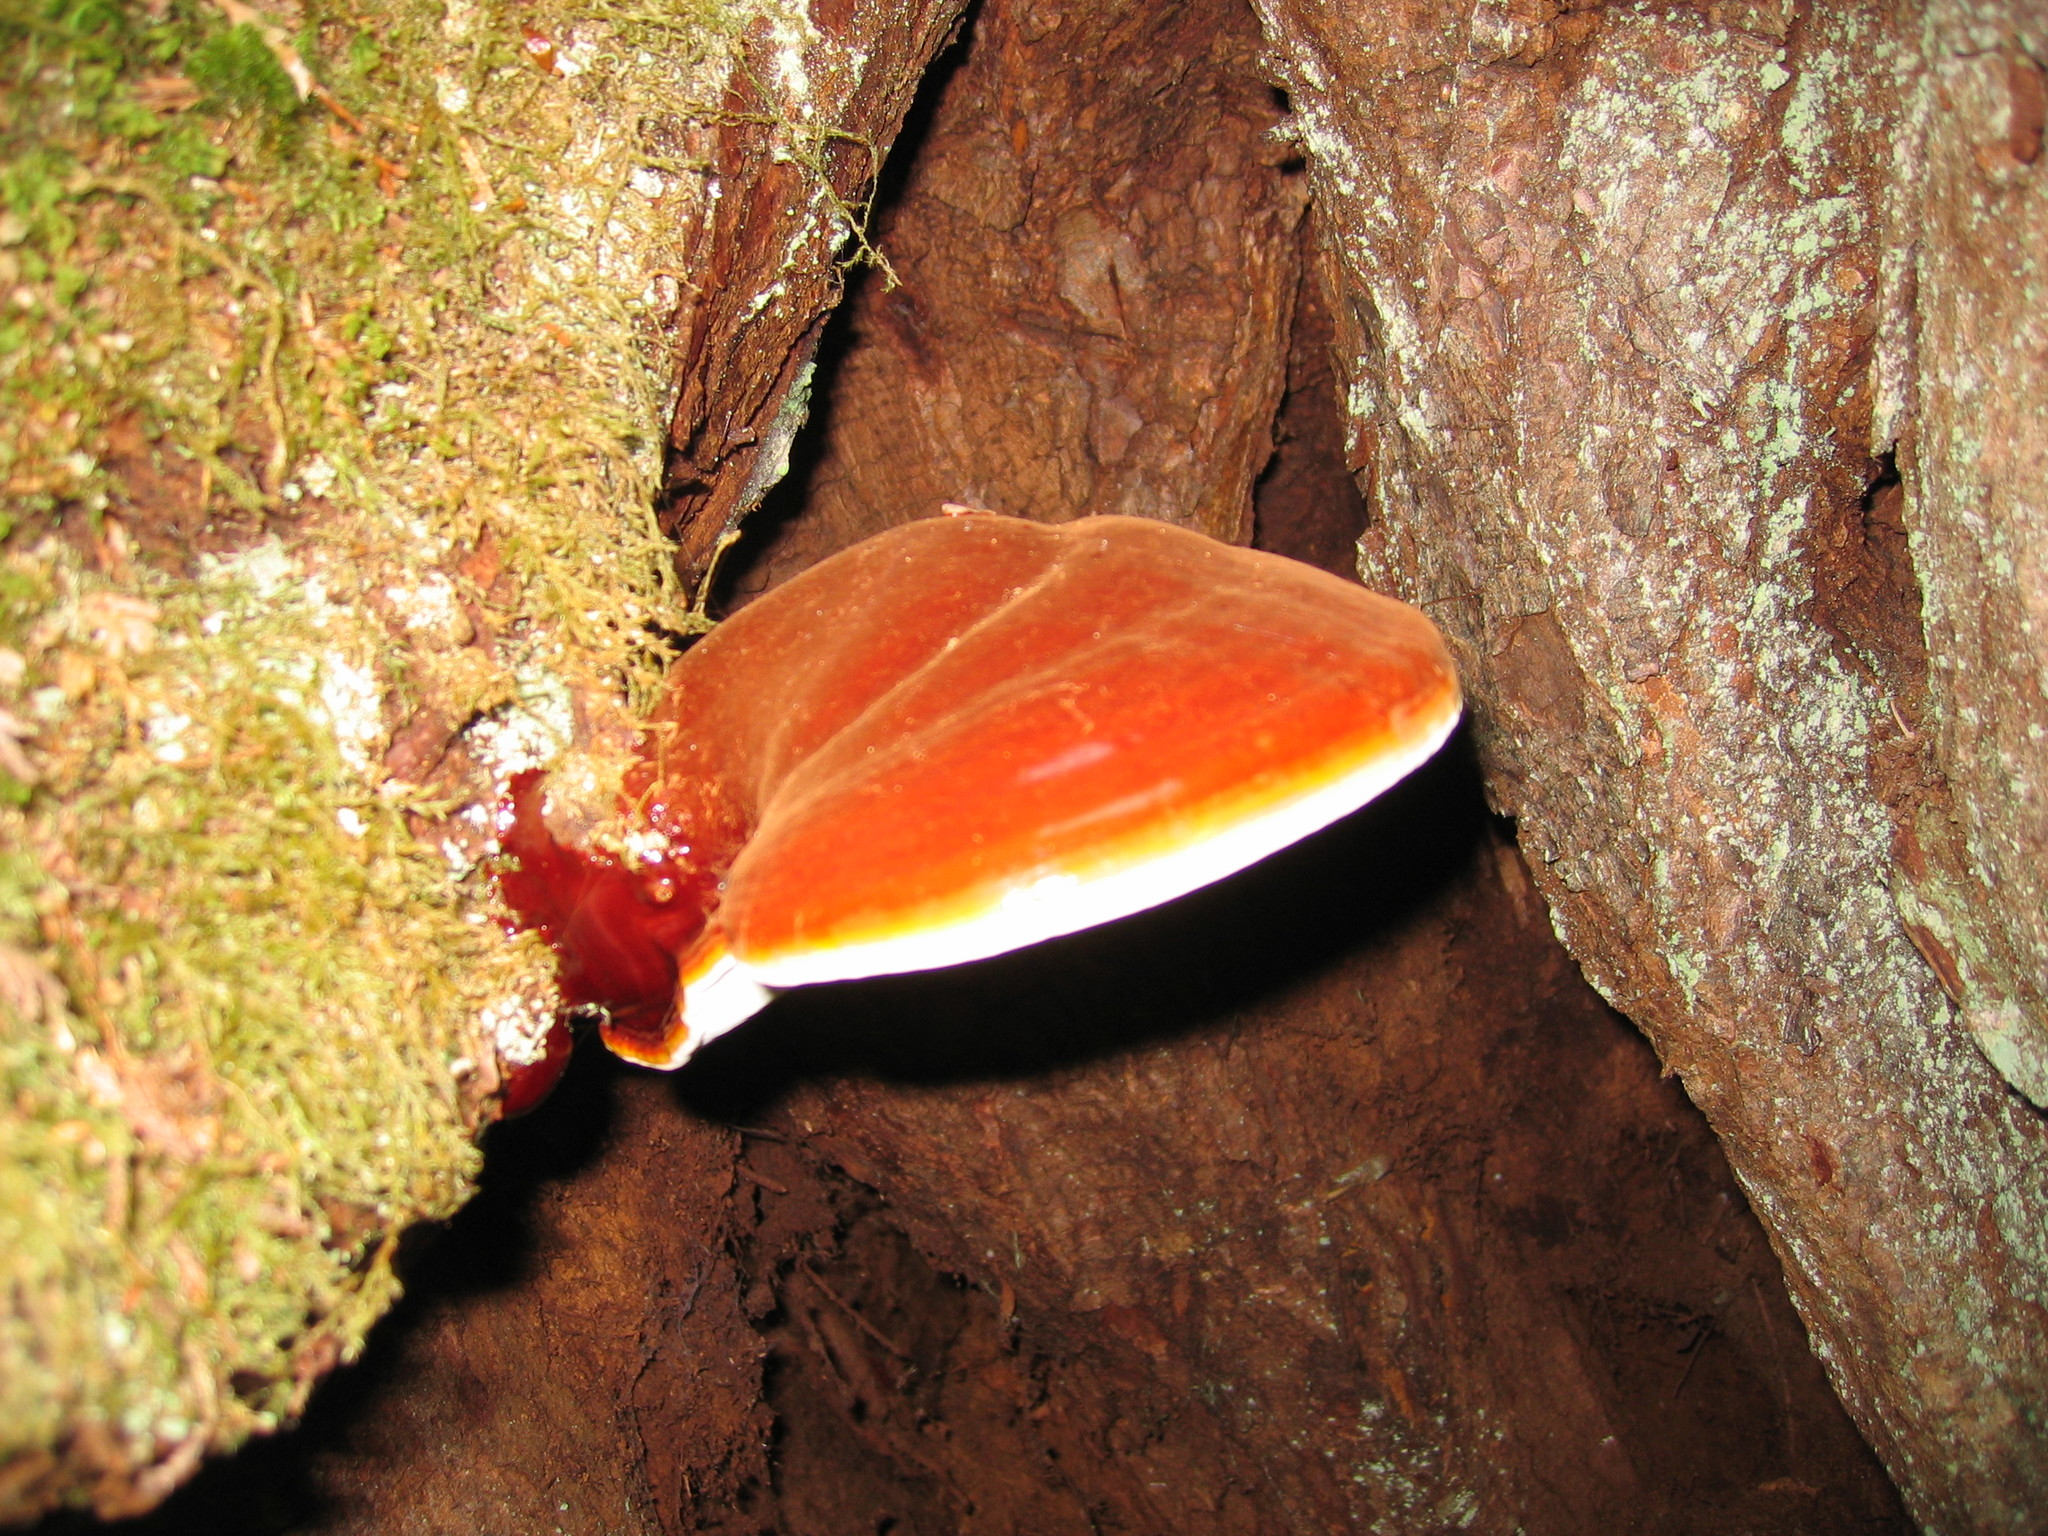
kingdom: Fungi
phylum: Basidiomycota
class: Agaricomycetes
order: Polyporales
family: Polyporaceae
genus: Ganoderma
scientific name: Ganoderma oregonense
